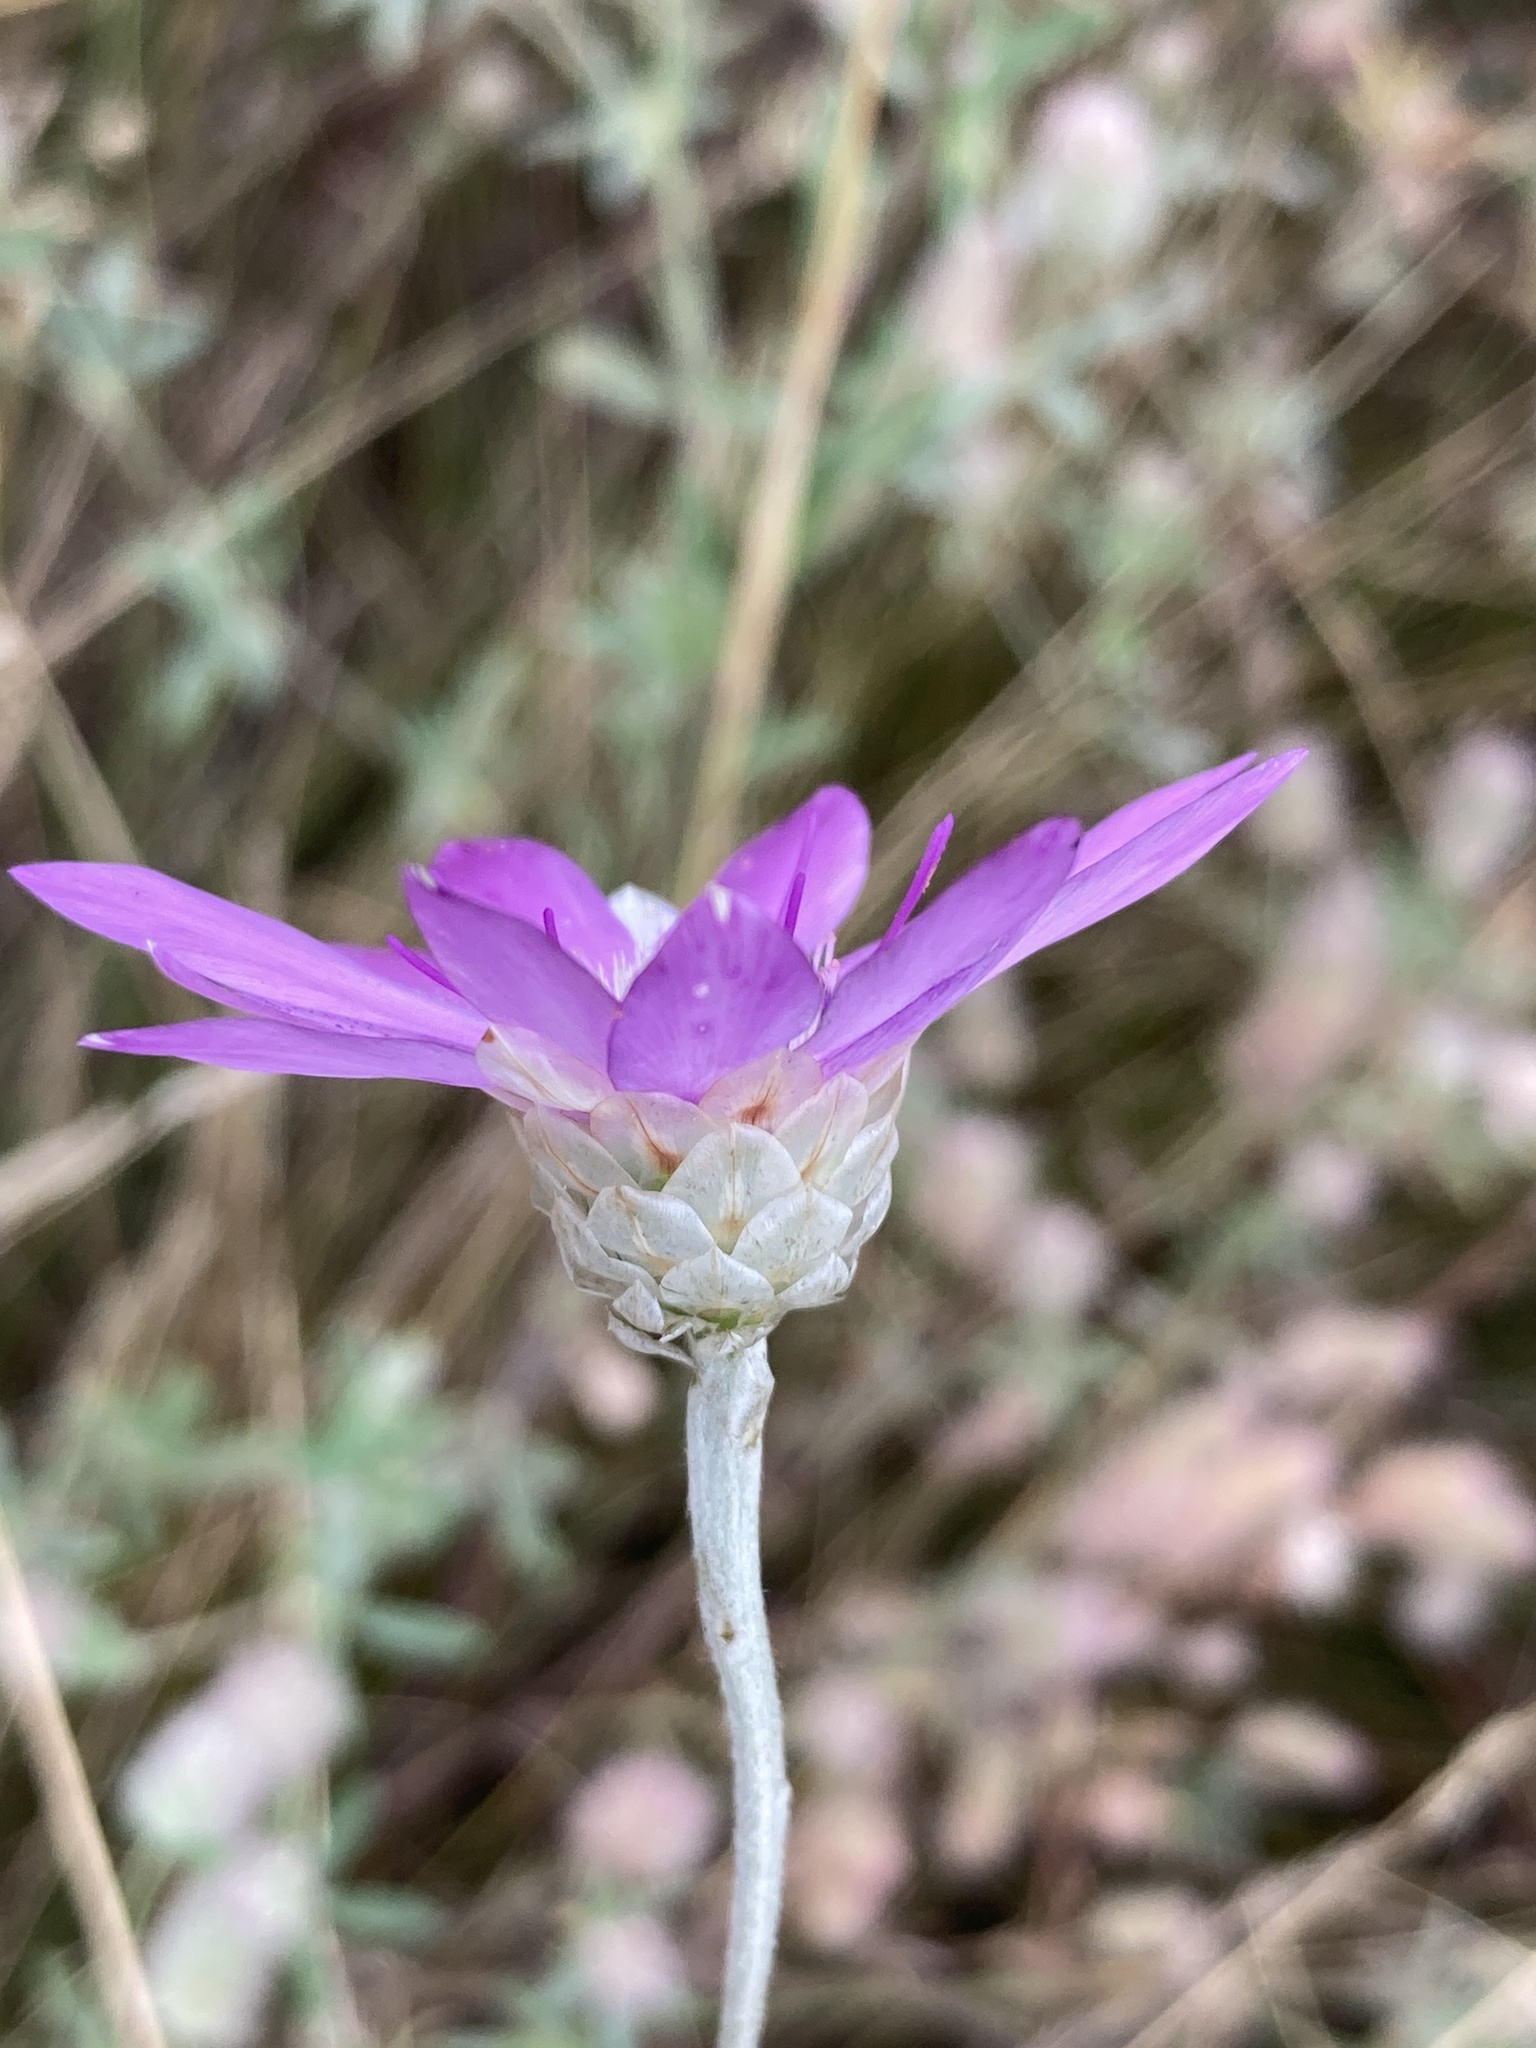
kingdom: Plantae
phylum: Tracheophyta
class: Magnoliopsida
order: Asterales
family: Asteraceae
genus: Xeranthemum
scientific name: Xeranthemum annuum
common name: Immortelle
